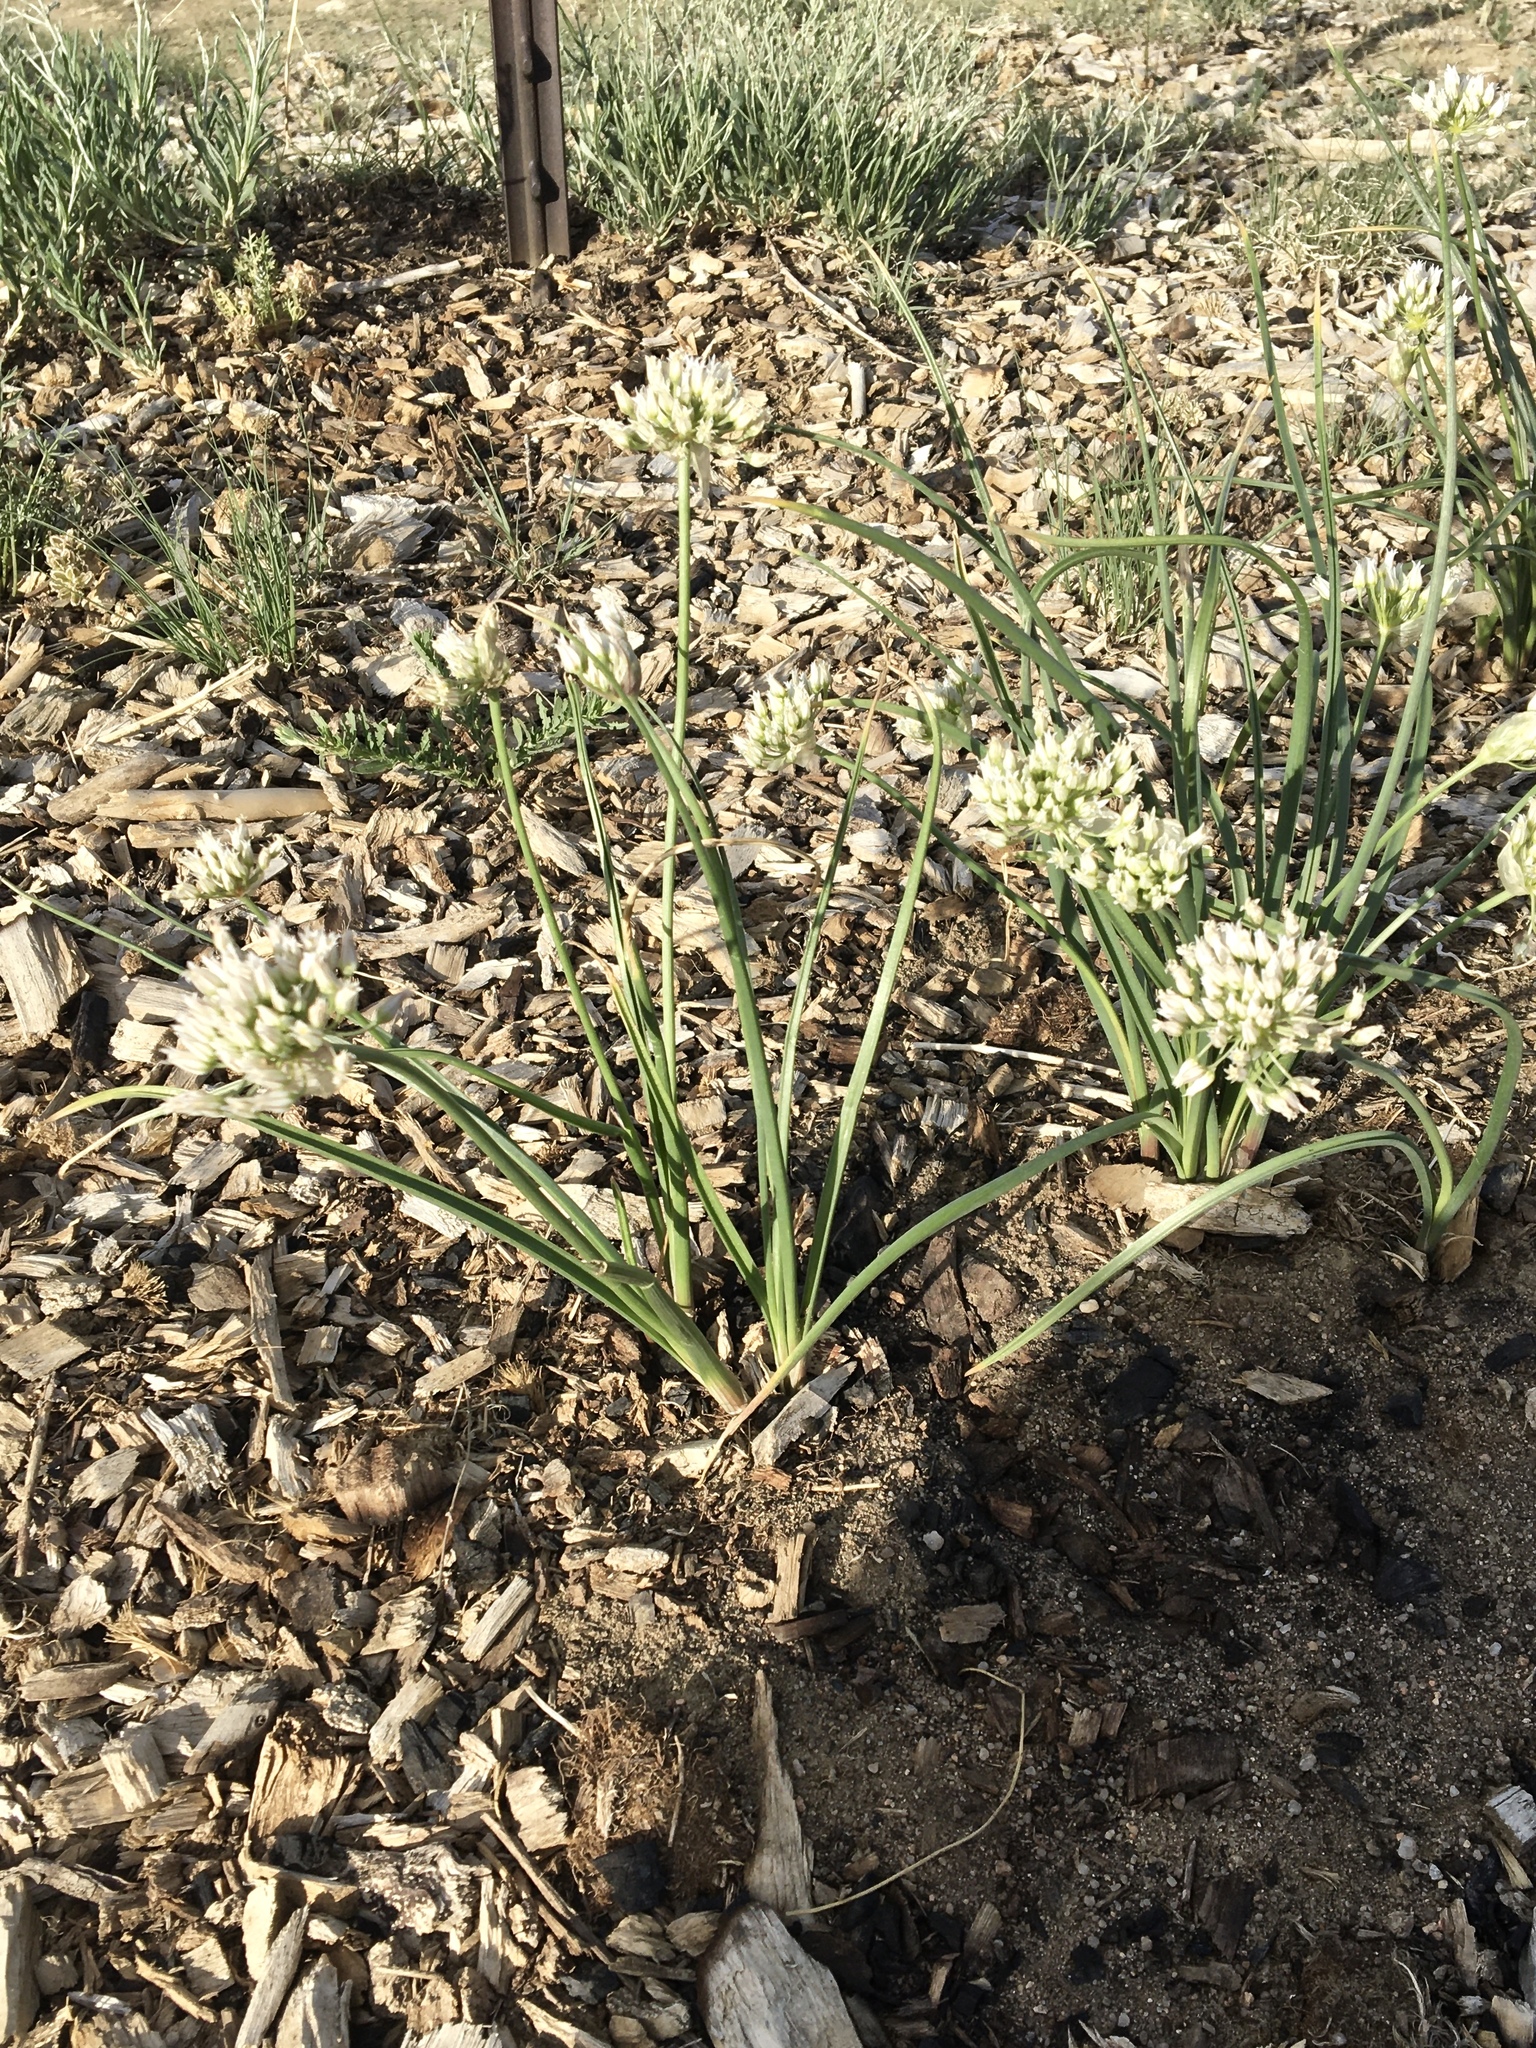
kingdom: Plantae
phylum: Tracheophyta
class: Liliopsida
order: Asparagales
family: Amaryllidaceae
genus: Allium
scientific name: Allium textile
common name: Prairie onion
